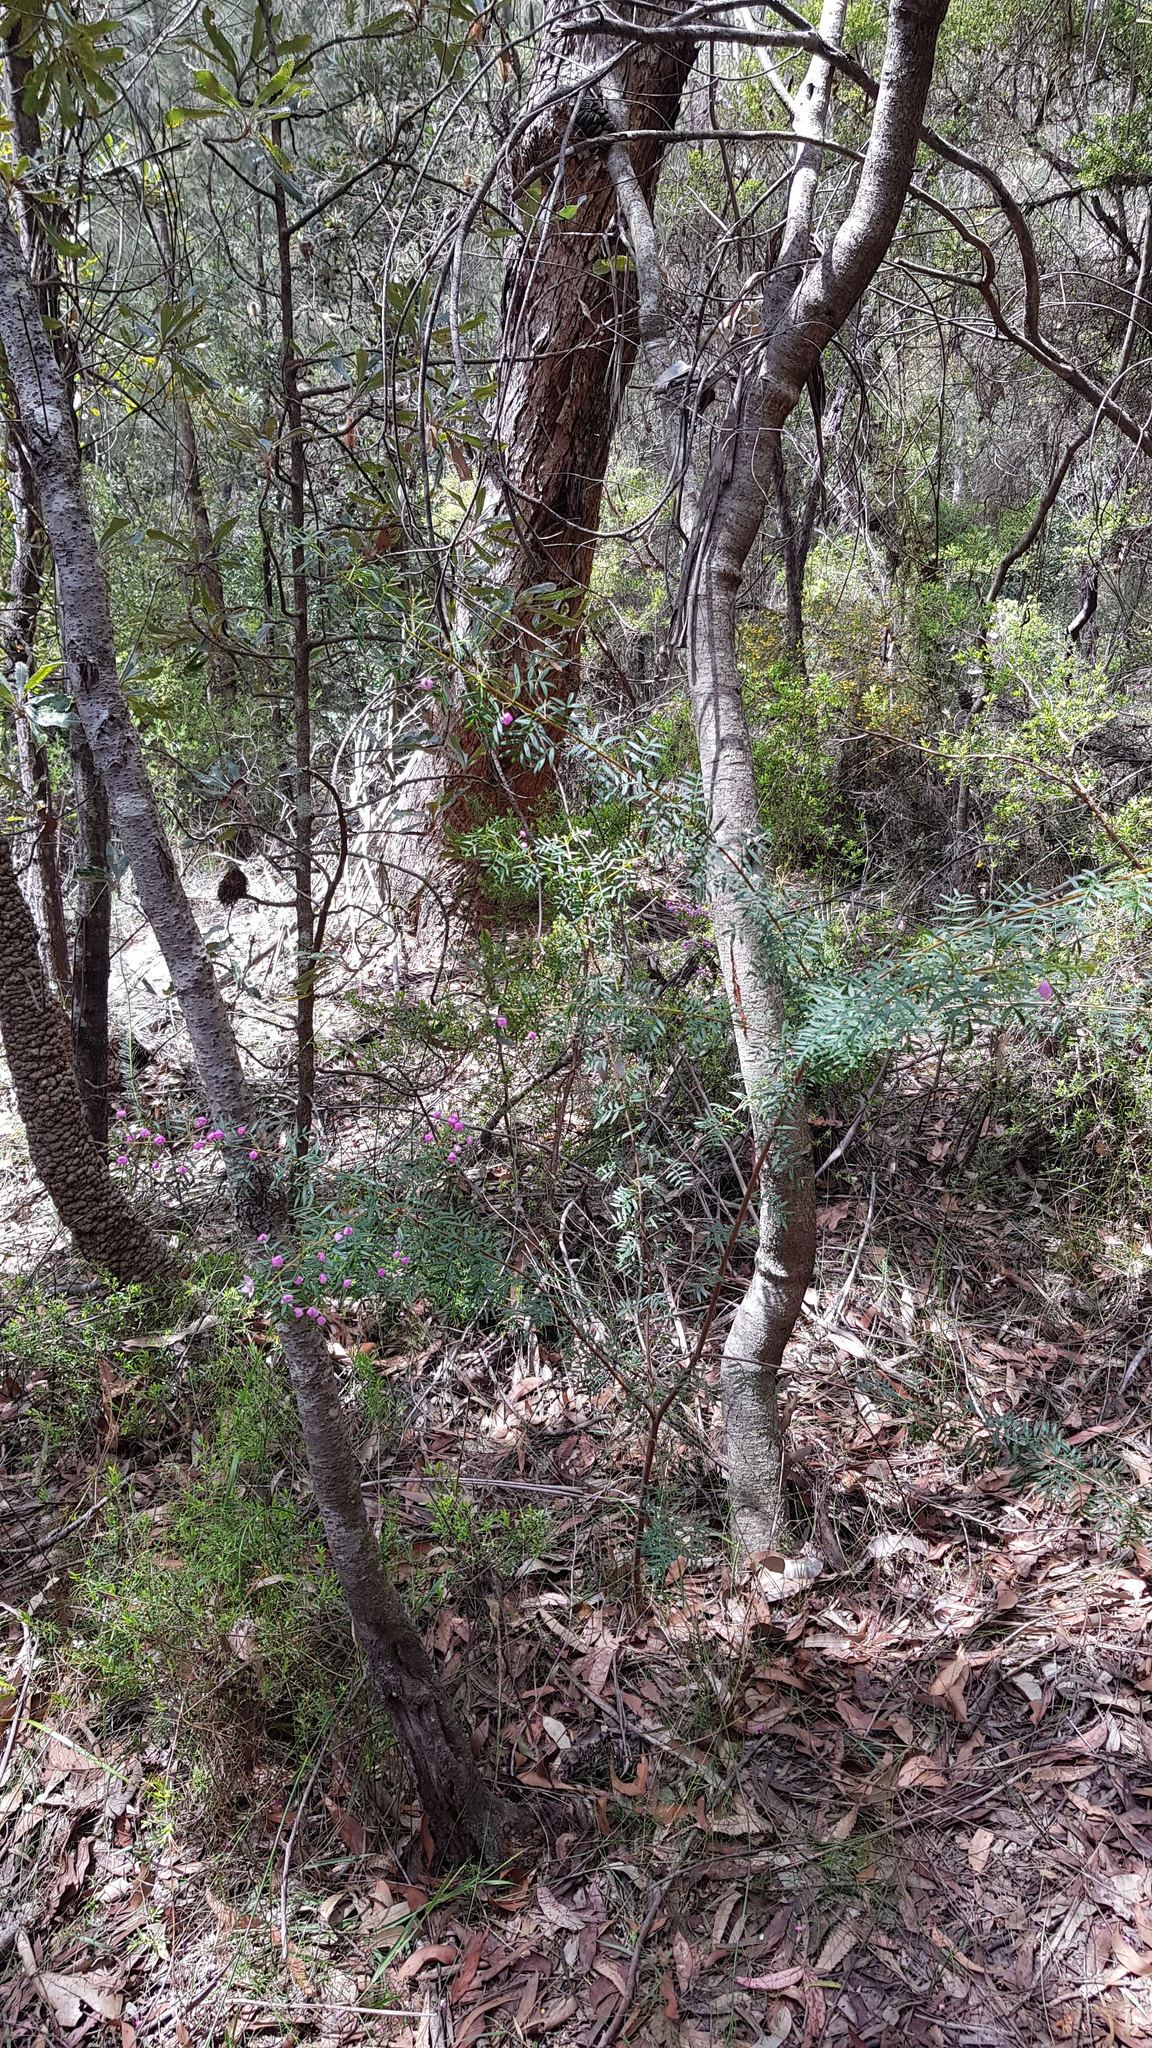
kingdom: Plantae
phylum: Tracheophyta
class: Magnoliopsida
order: Sapindales
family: Rutaceae
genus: Boronia
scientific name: Boronia pinnata
